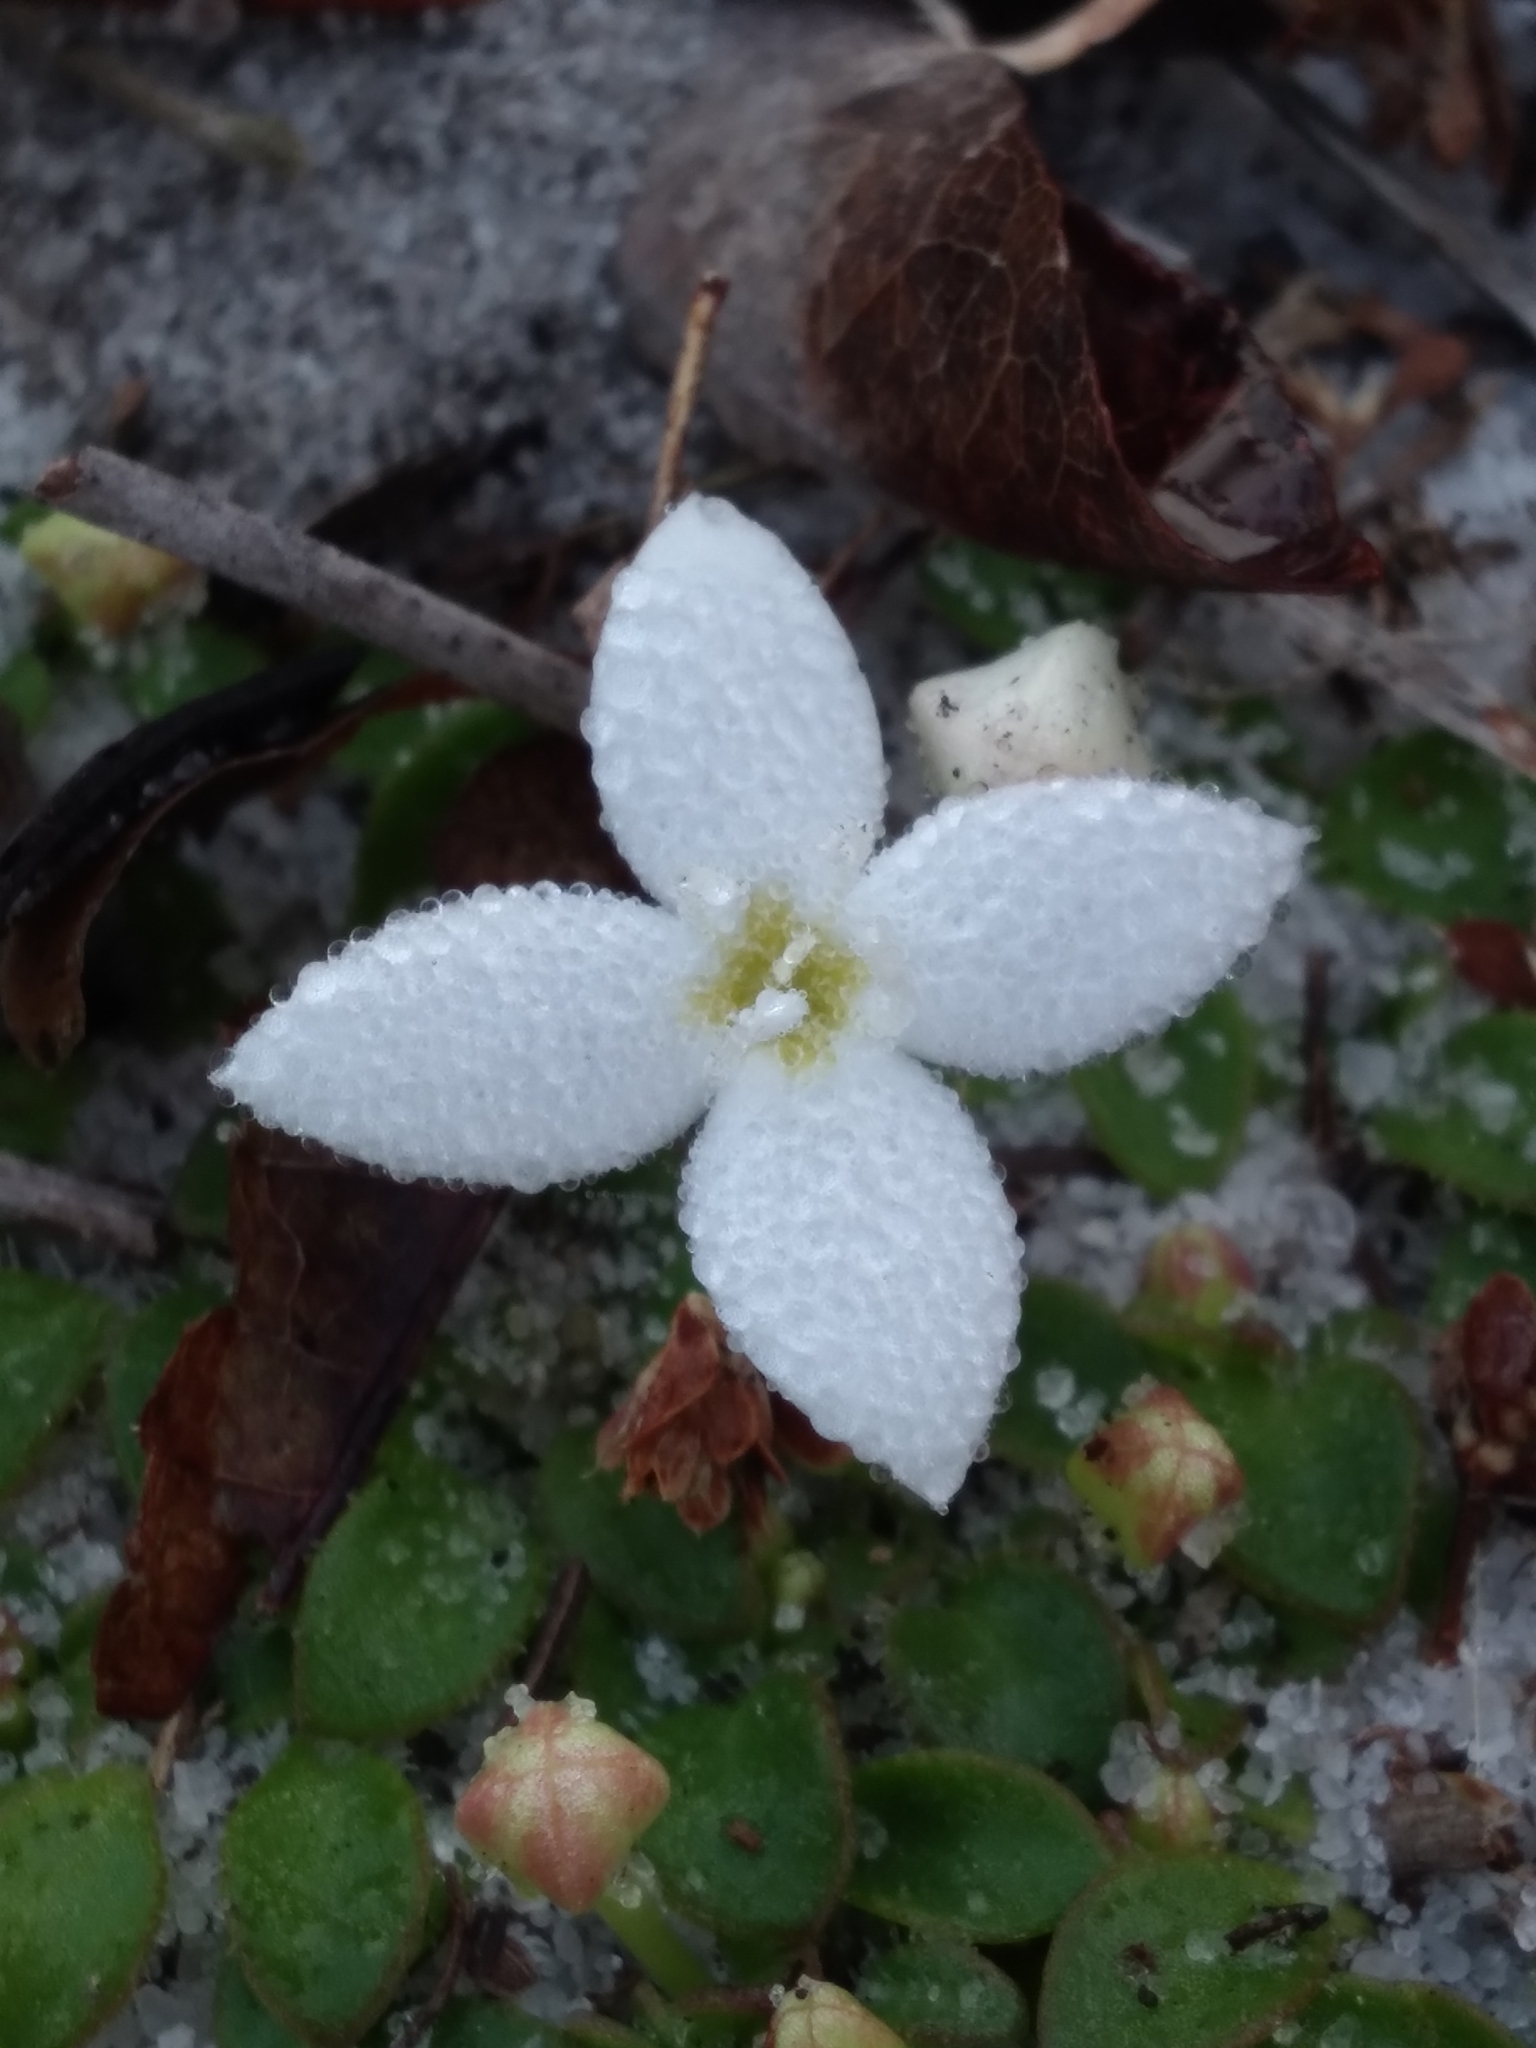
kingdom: Plantae
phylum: Tracheophyta
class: Magnoliopsida
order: Gentianales
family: Rubiaceae
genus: Houstonia
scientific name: Houstonia procumbens
